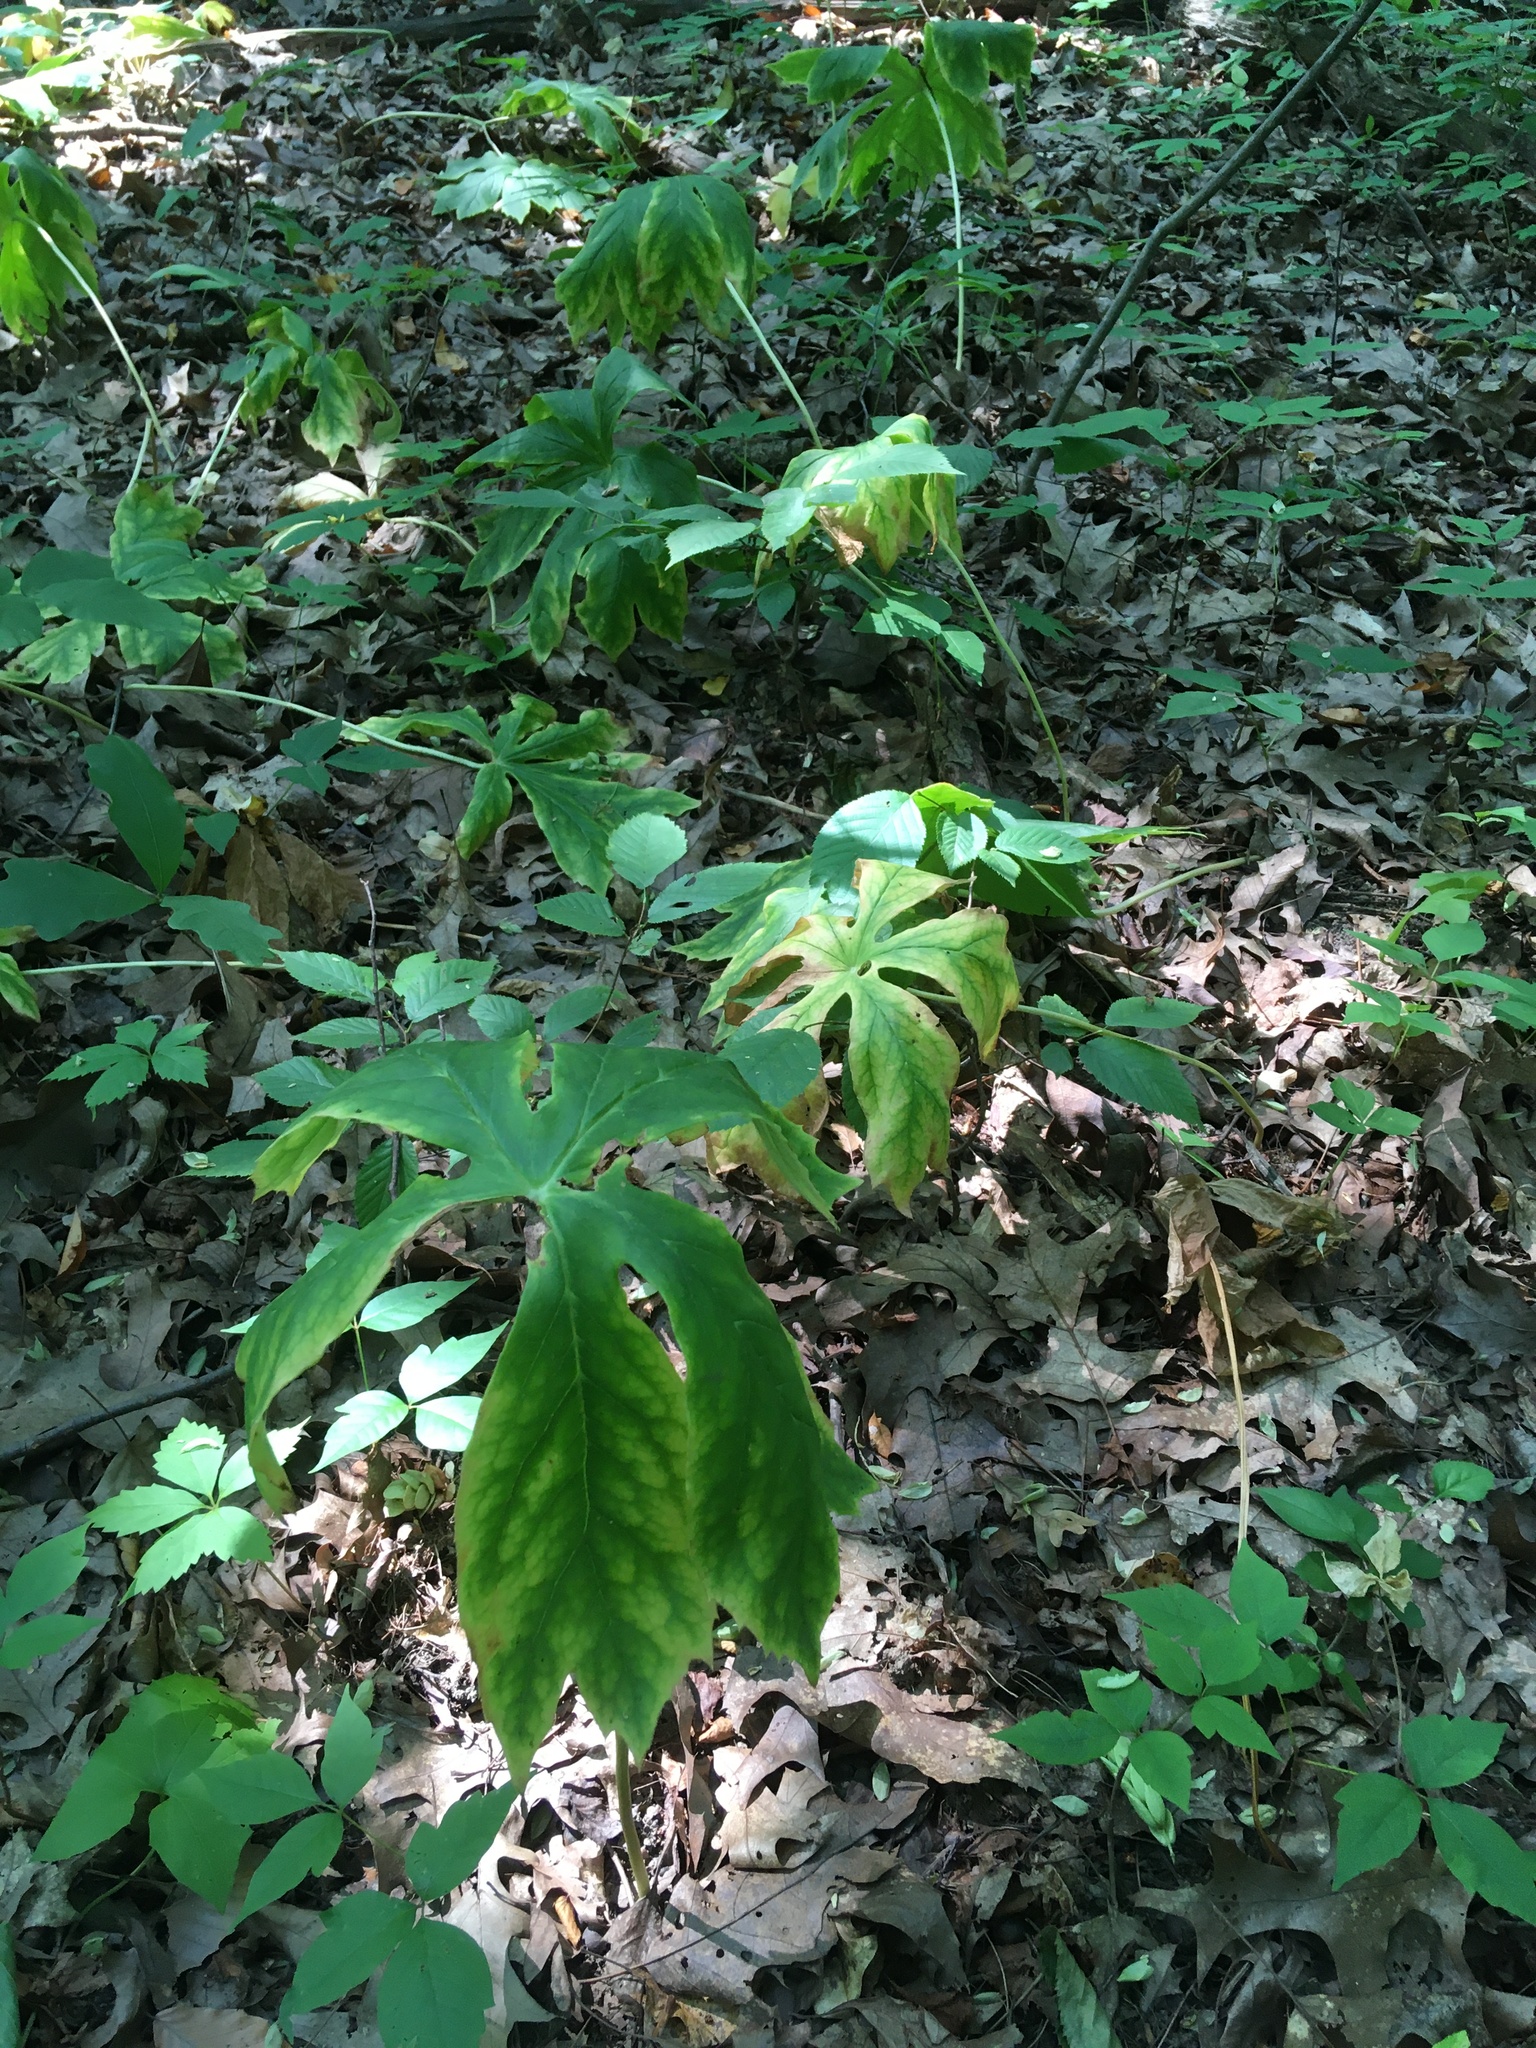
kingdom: Plantae
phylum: Tracheophyta
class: Magnoliopsida
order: Ranunculales
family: Berberidaceae
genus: Podophyllum
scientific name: Podophyllum peltatum
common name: Wild mandrake
